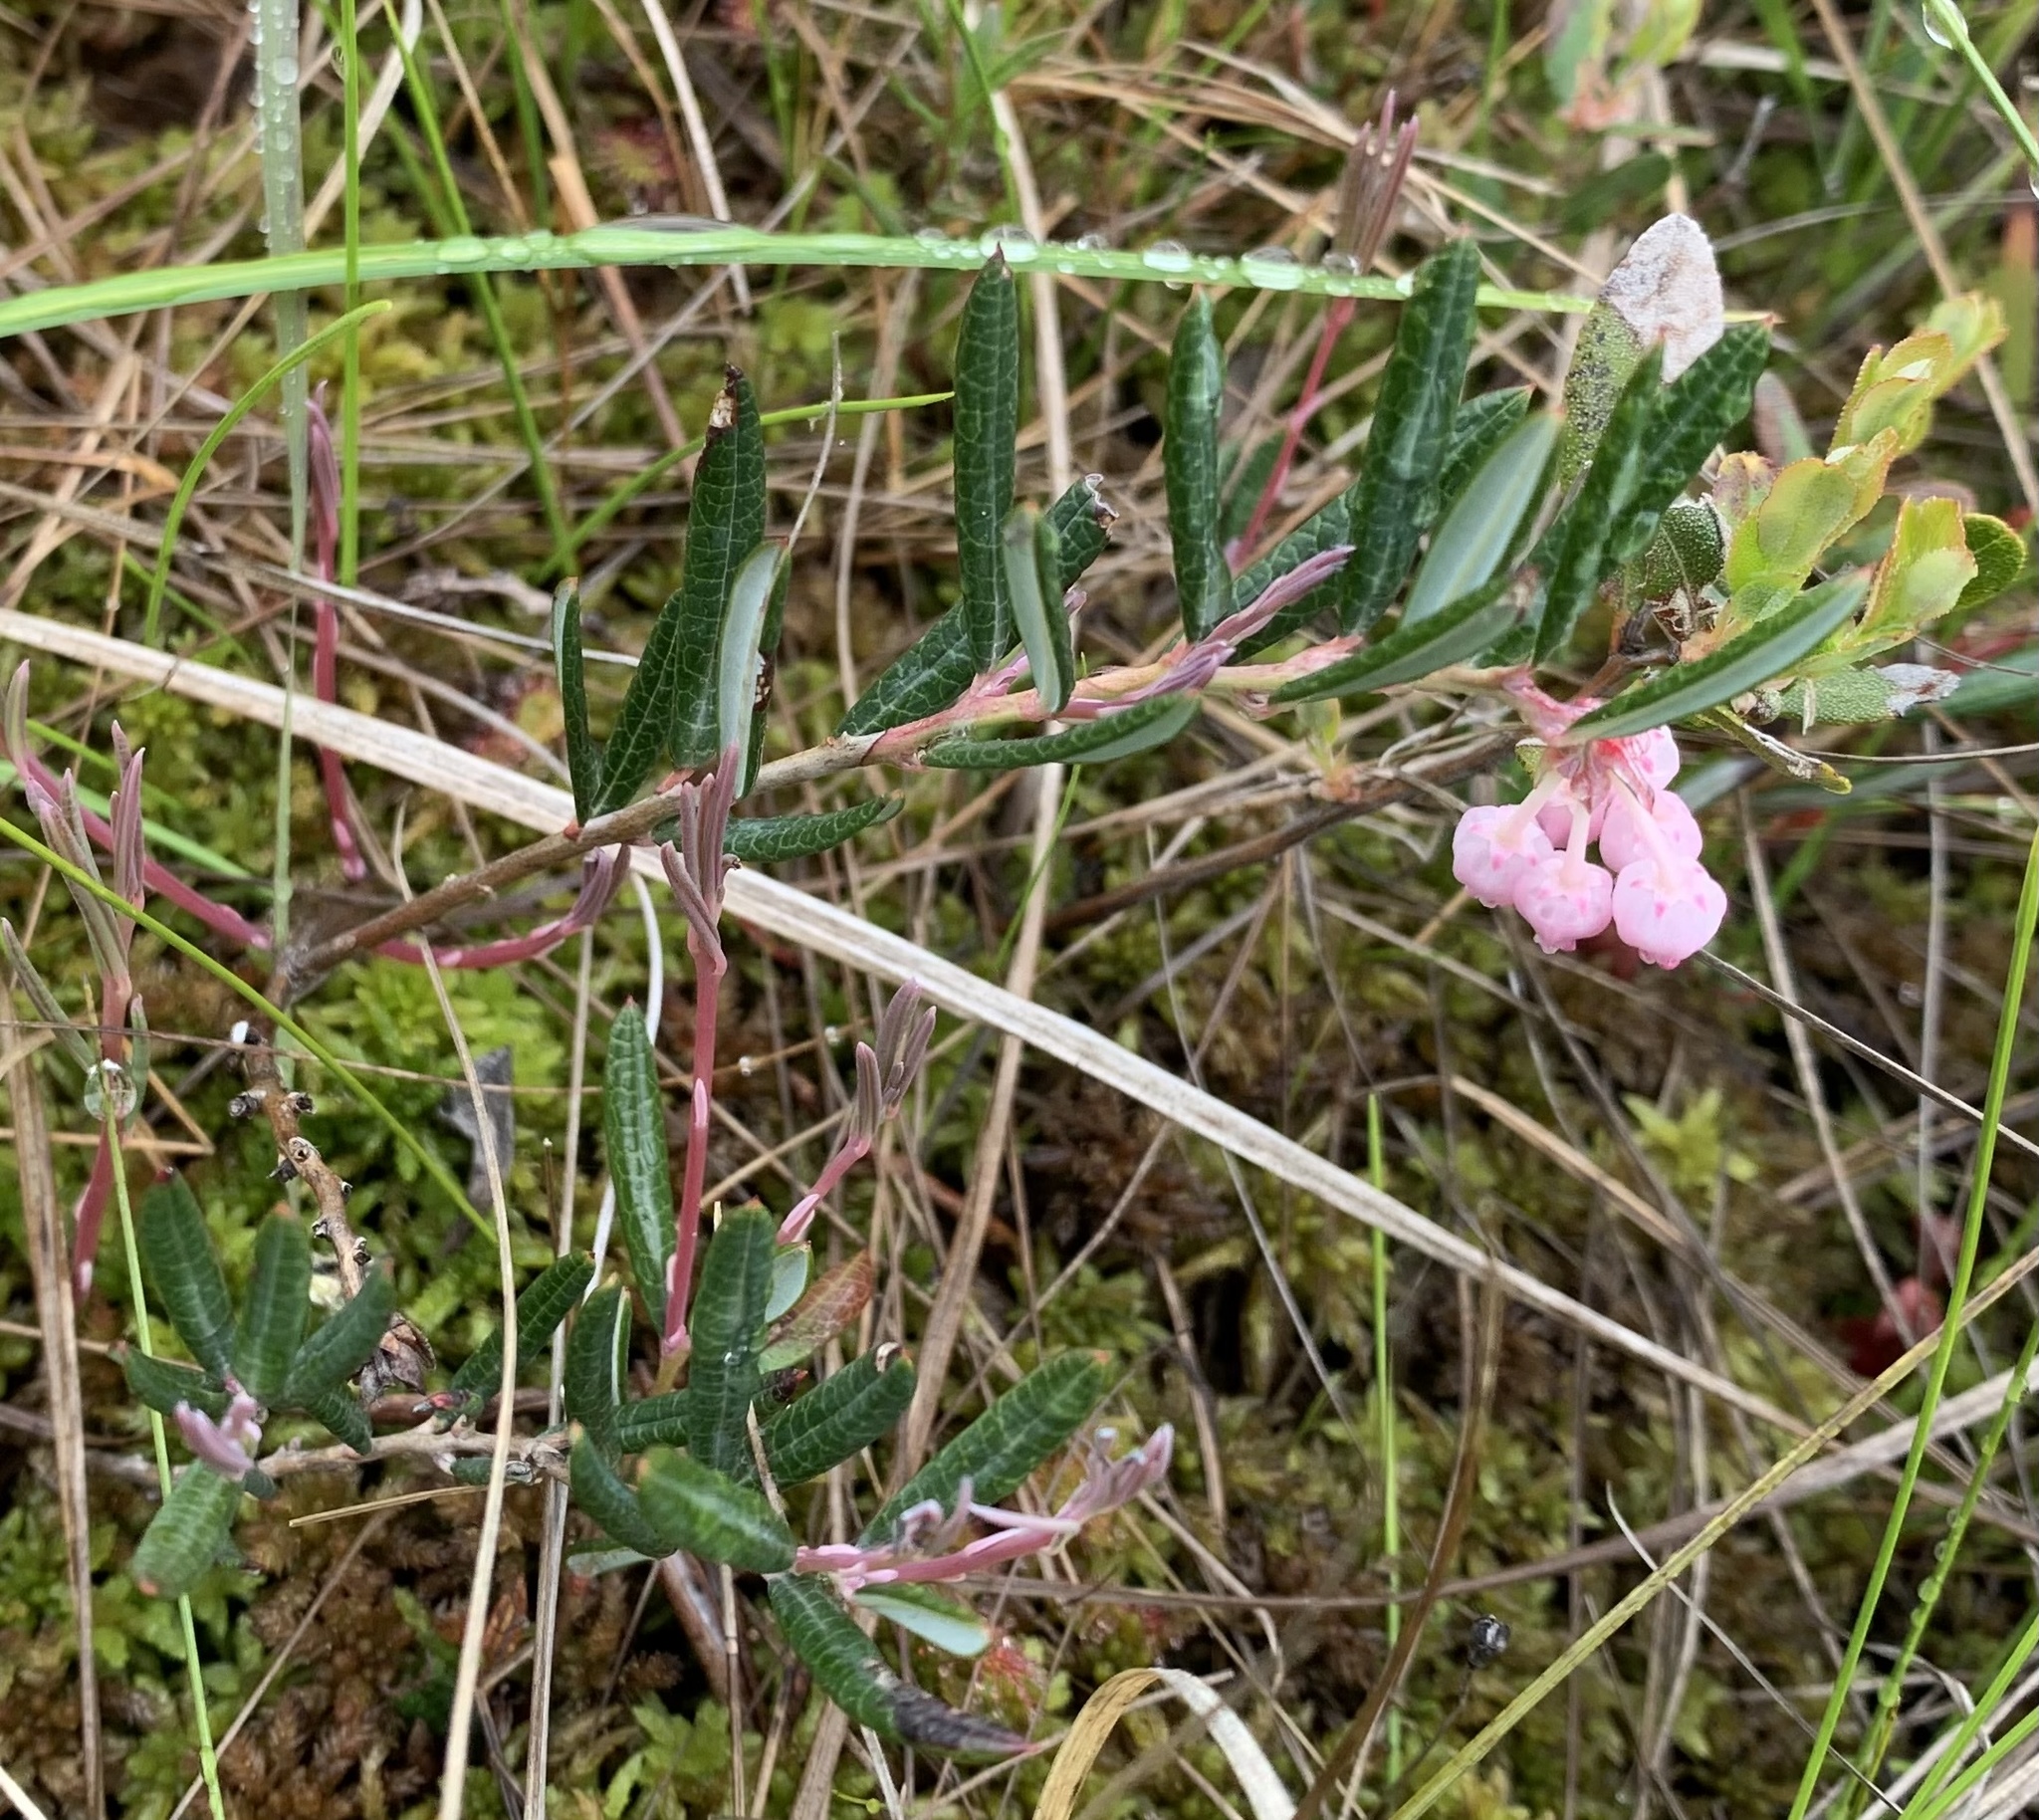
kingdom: Plantae
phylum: Tracheophyta
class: Magnoliopsida
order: Ericales
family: Ericaceae
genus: Andromeda
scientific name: Andromeda polifolia
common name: Bog-rosemary
